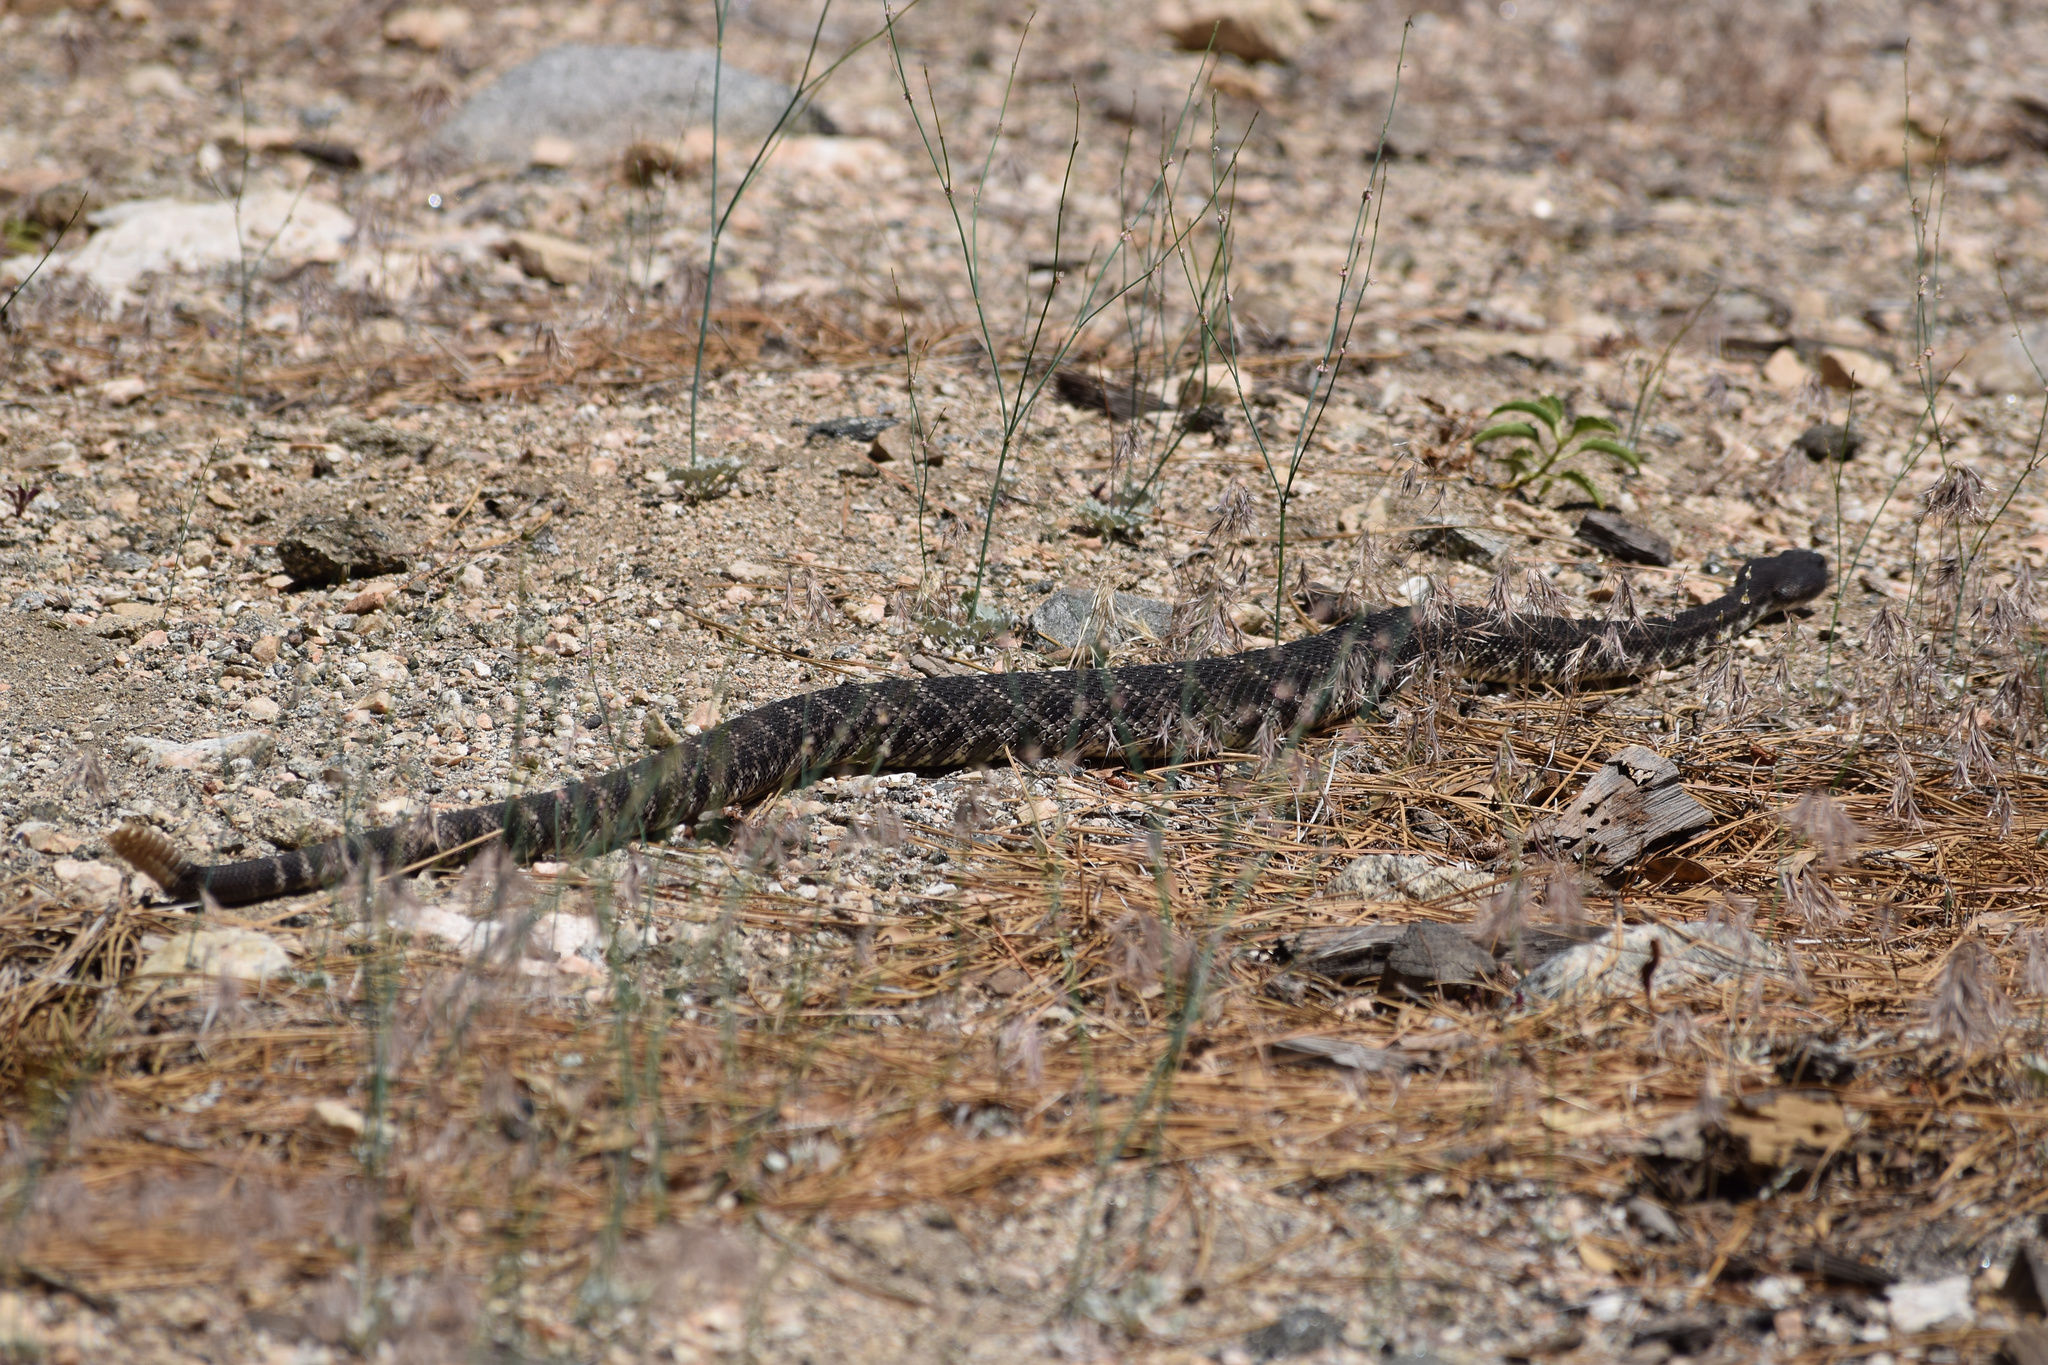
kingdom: Animalia
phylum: Chordata
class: Squamata
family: Viperidae
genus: Crotalus
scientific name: Crotalus oreganus
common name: Abyssus
